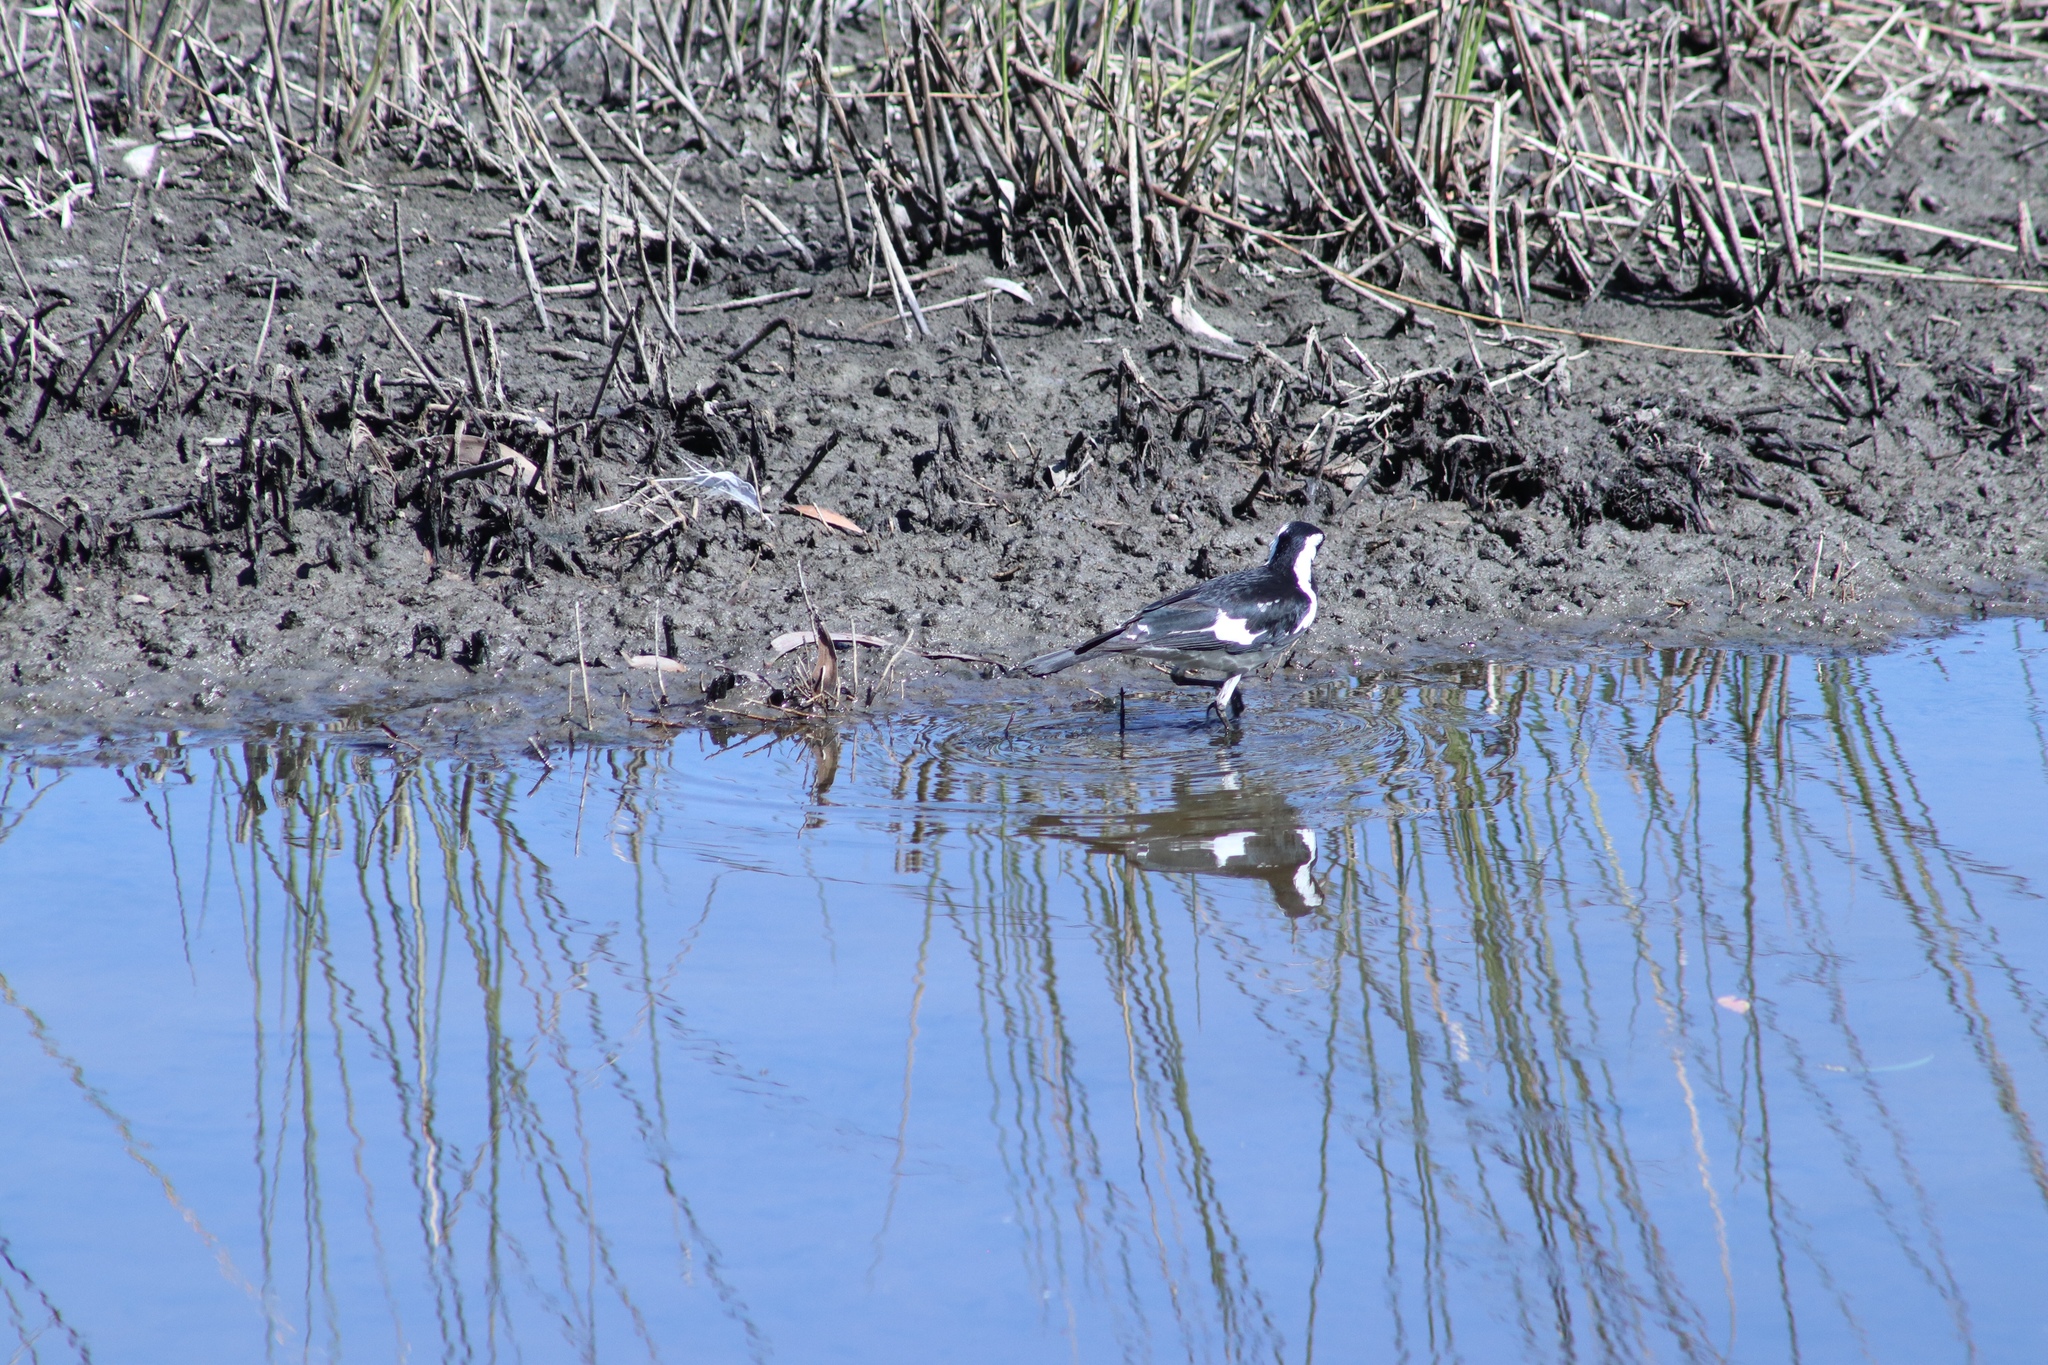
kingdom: Animalia
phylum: Chordata
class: Aves
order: Passeriformes
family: Monarchidae
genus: Grallina
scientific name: Grallina cyanoleuca
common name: Magpie-lark
